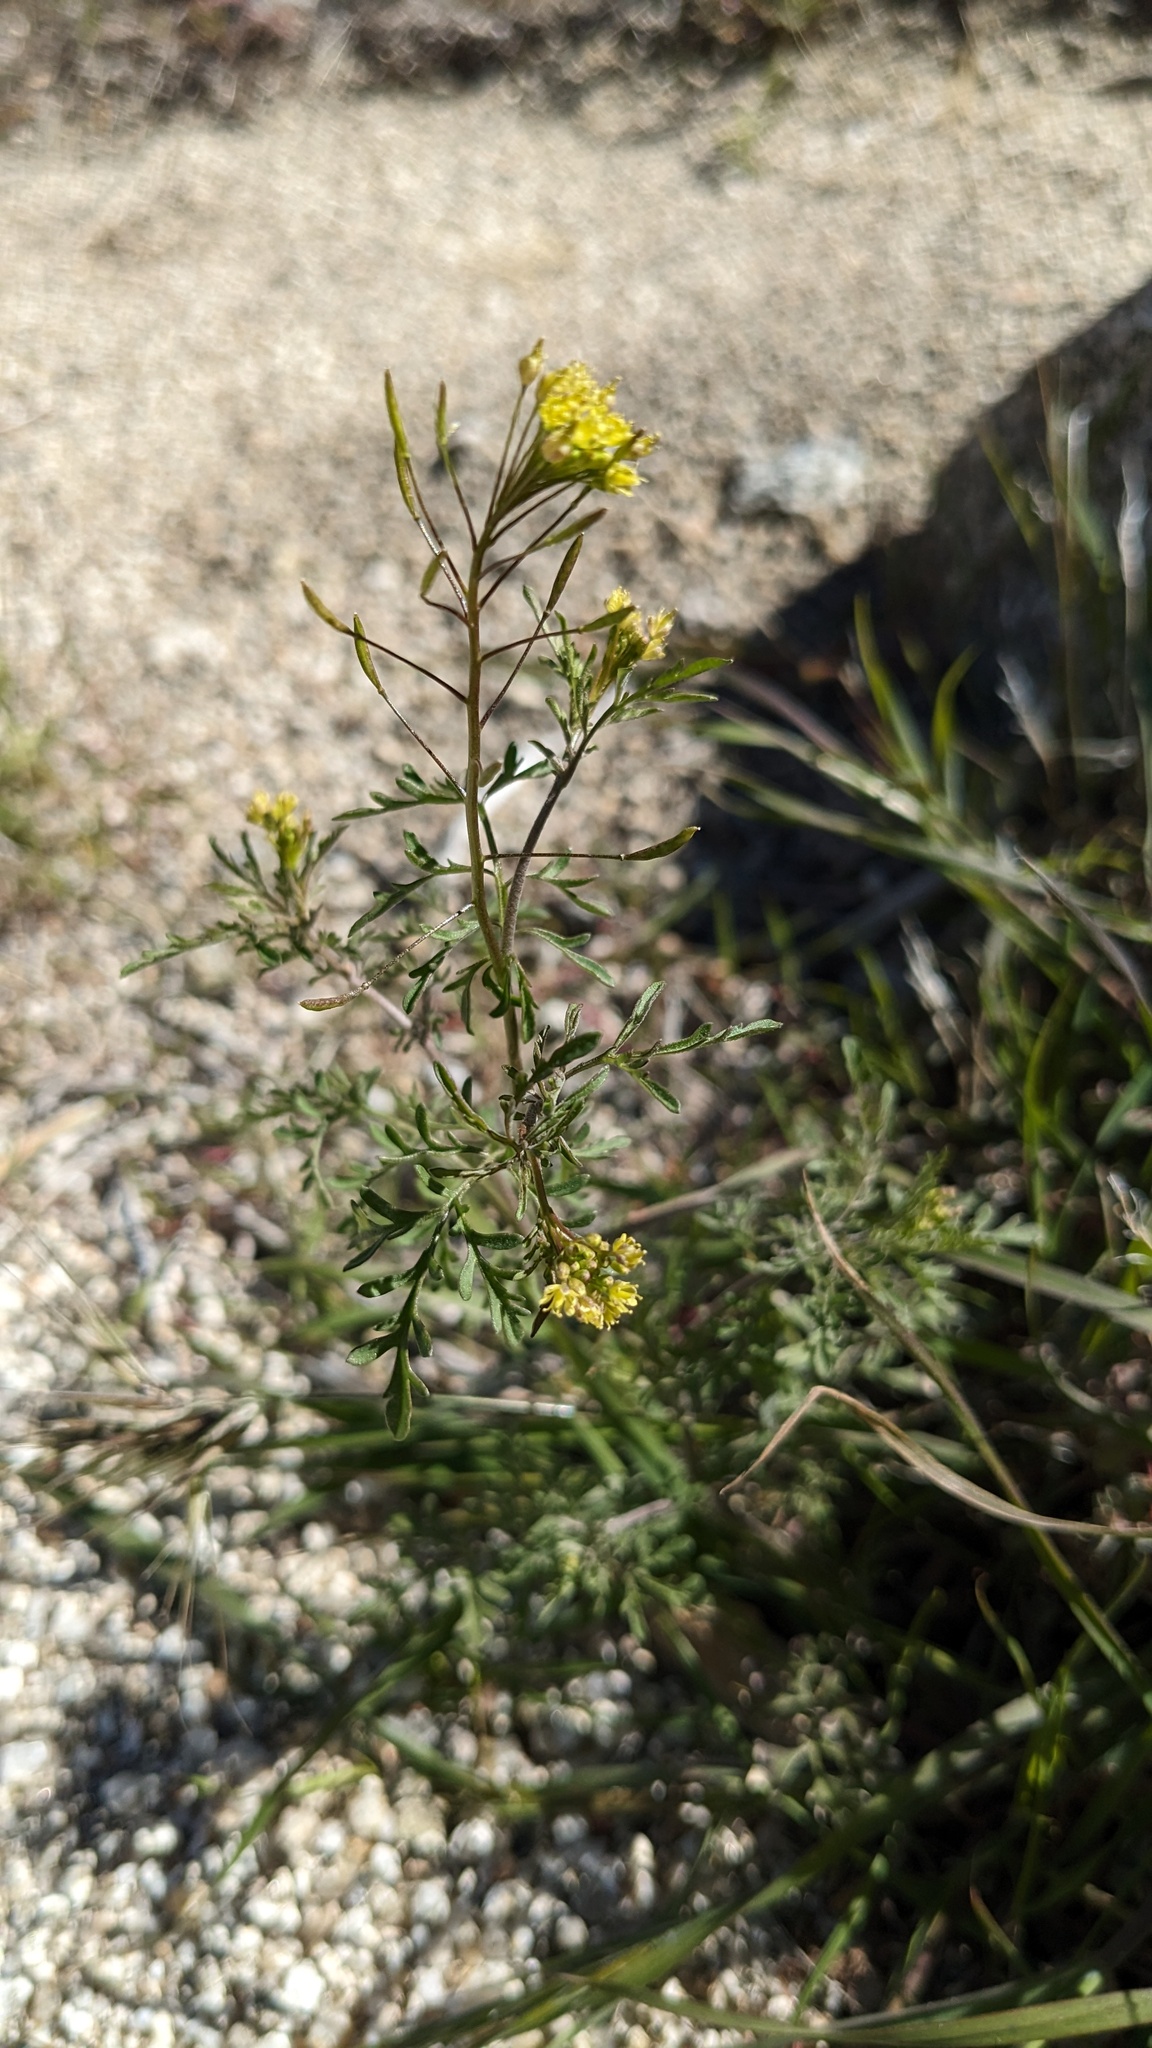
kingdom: Plantae
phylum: Tracheophyta
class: Magnoliopsida
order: Brassicales
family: Brassicaceae
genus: Descurainia
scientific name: Descurainia pinnata
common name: Western tansy mustard
